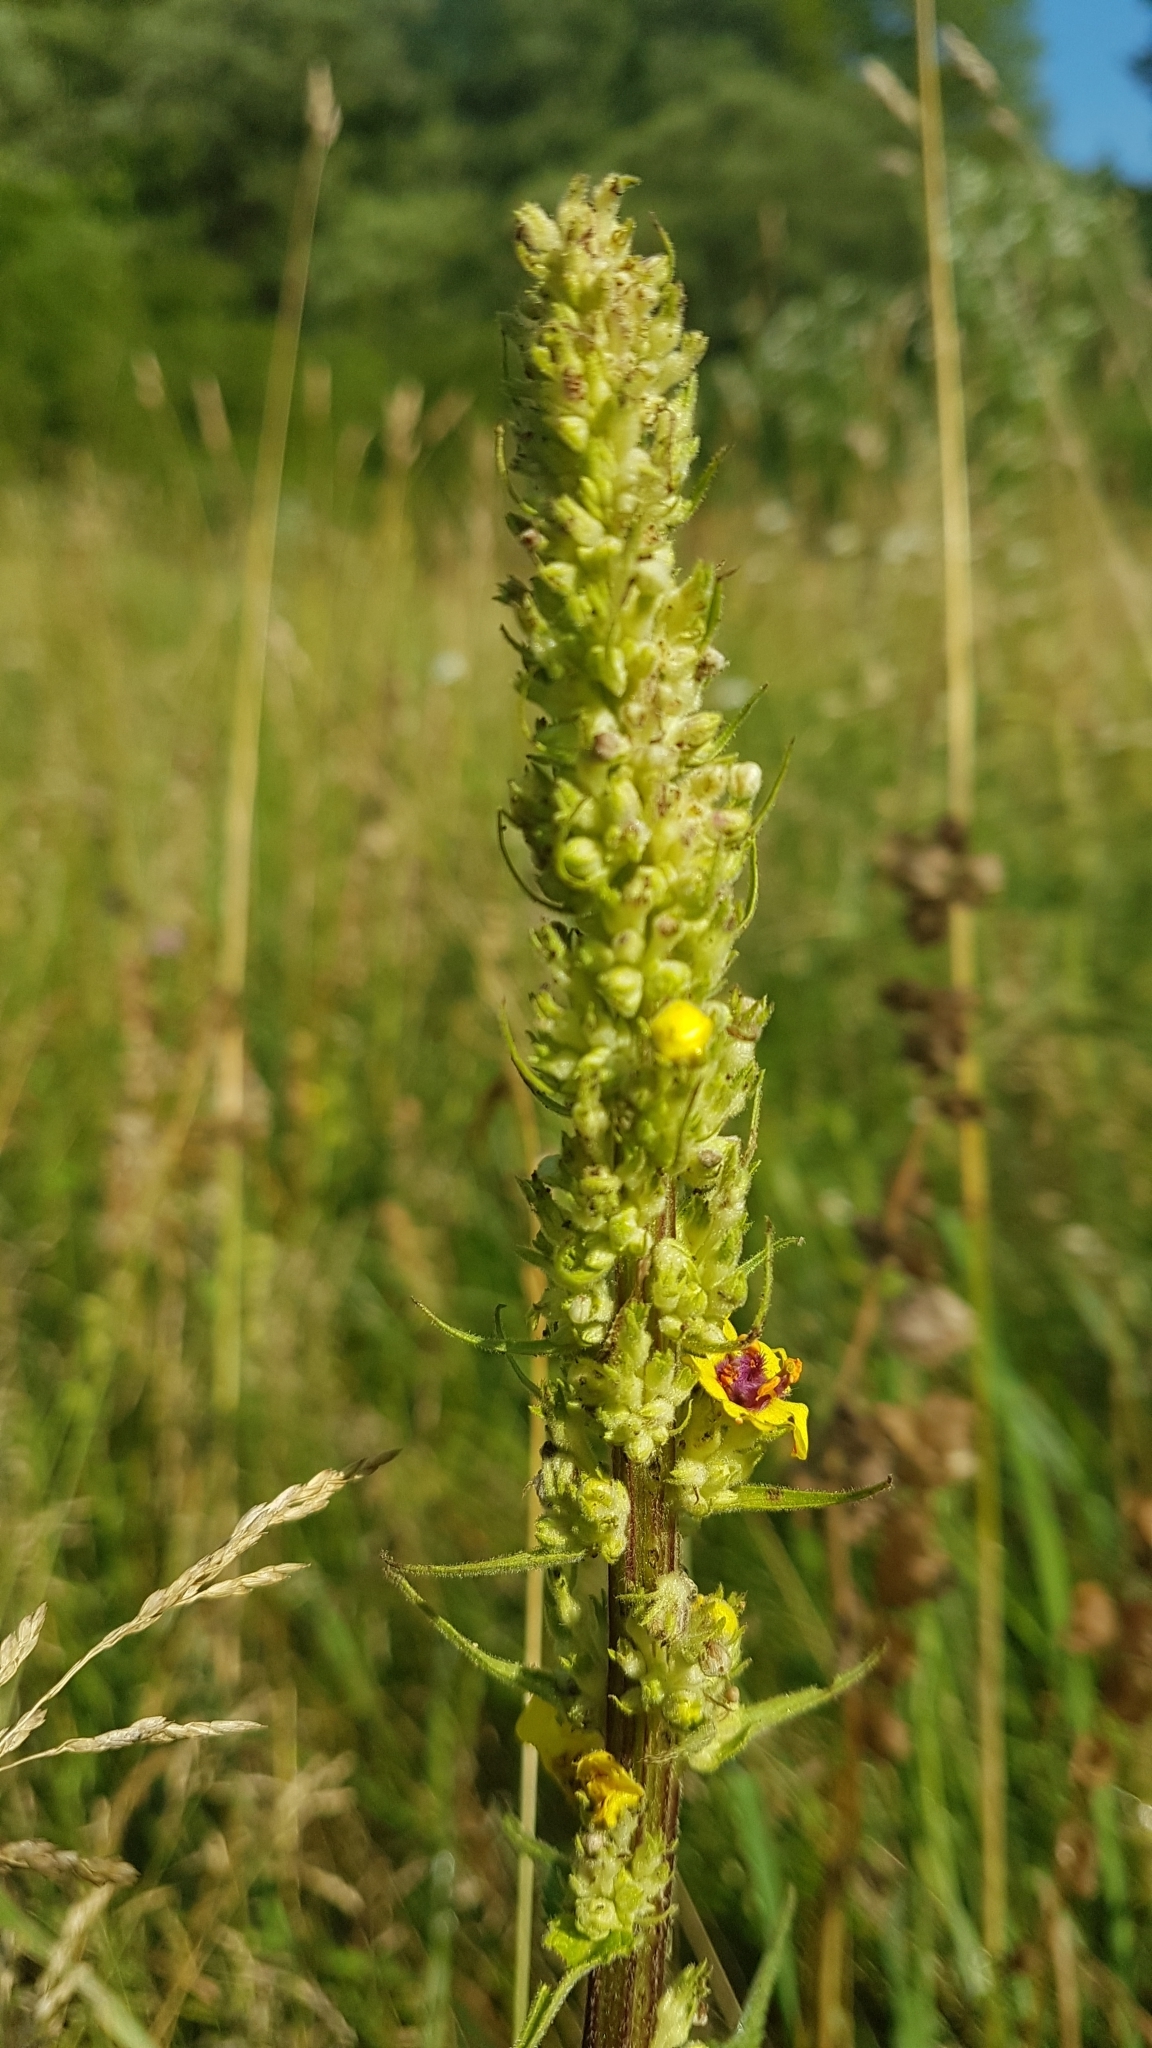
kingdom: Plantae
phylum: Tracheophyta
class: Magnoliopsida
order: Lamiales
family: Scrophulariaceae
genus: Verbascum
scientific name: Verbascum nigrum
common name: Dark mullein
